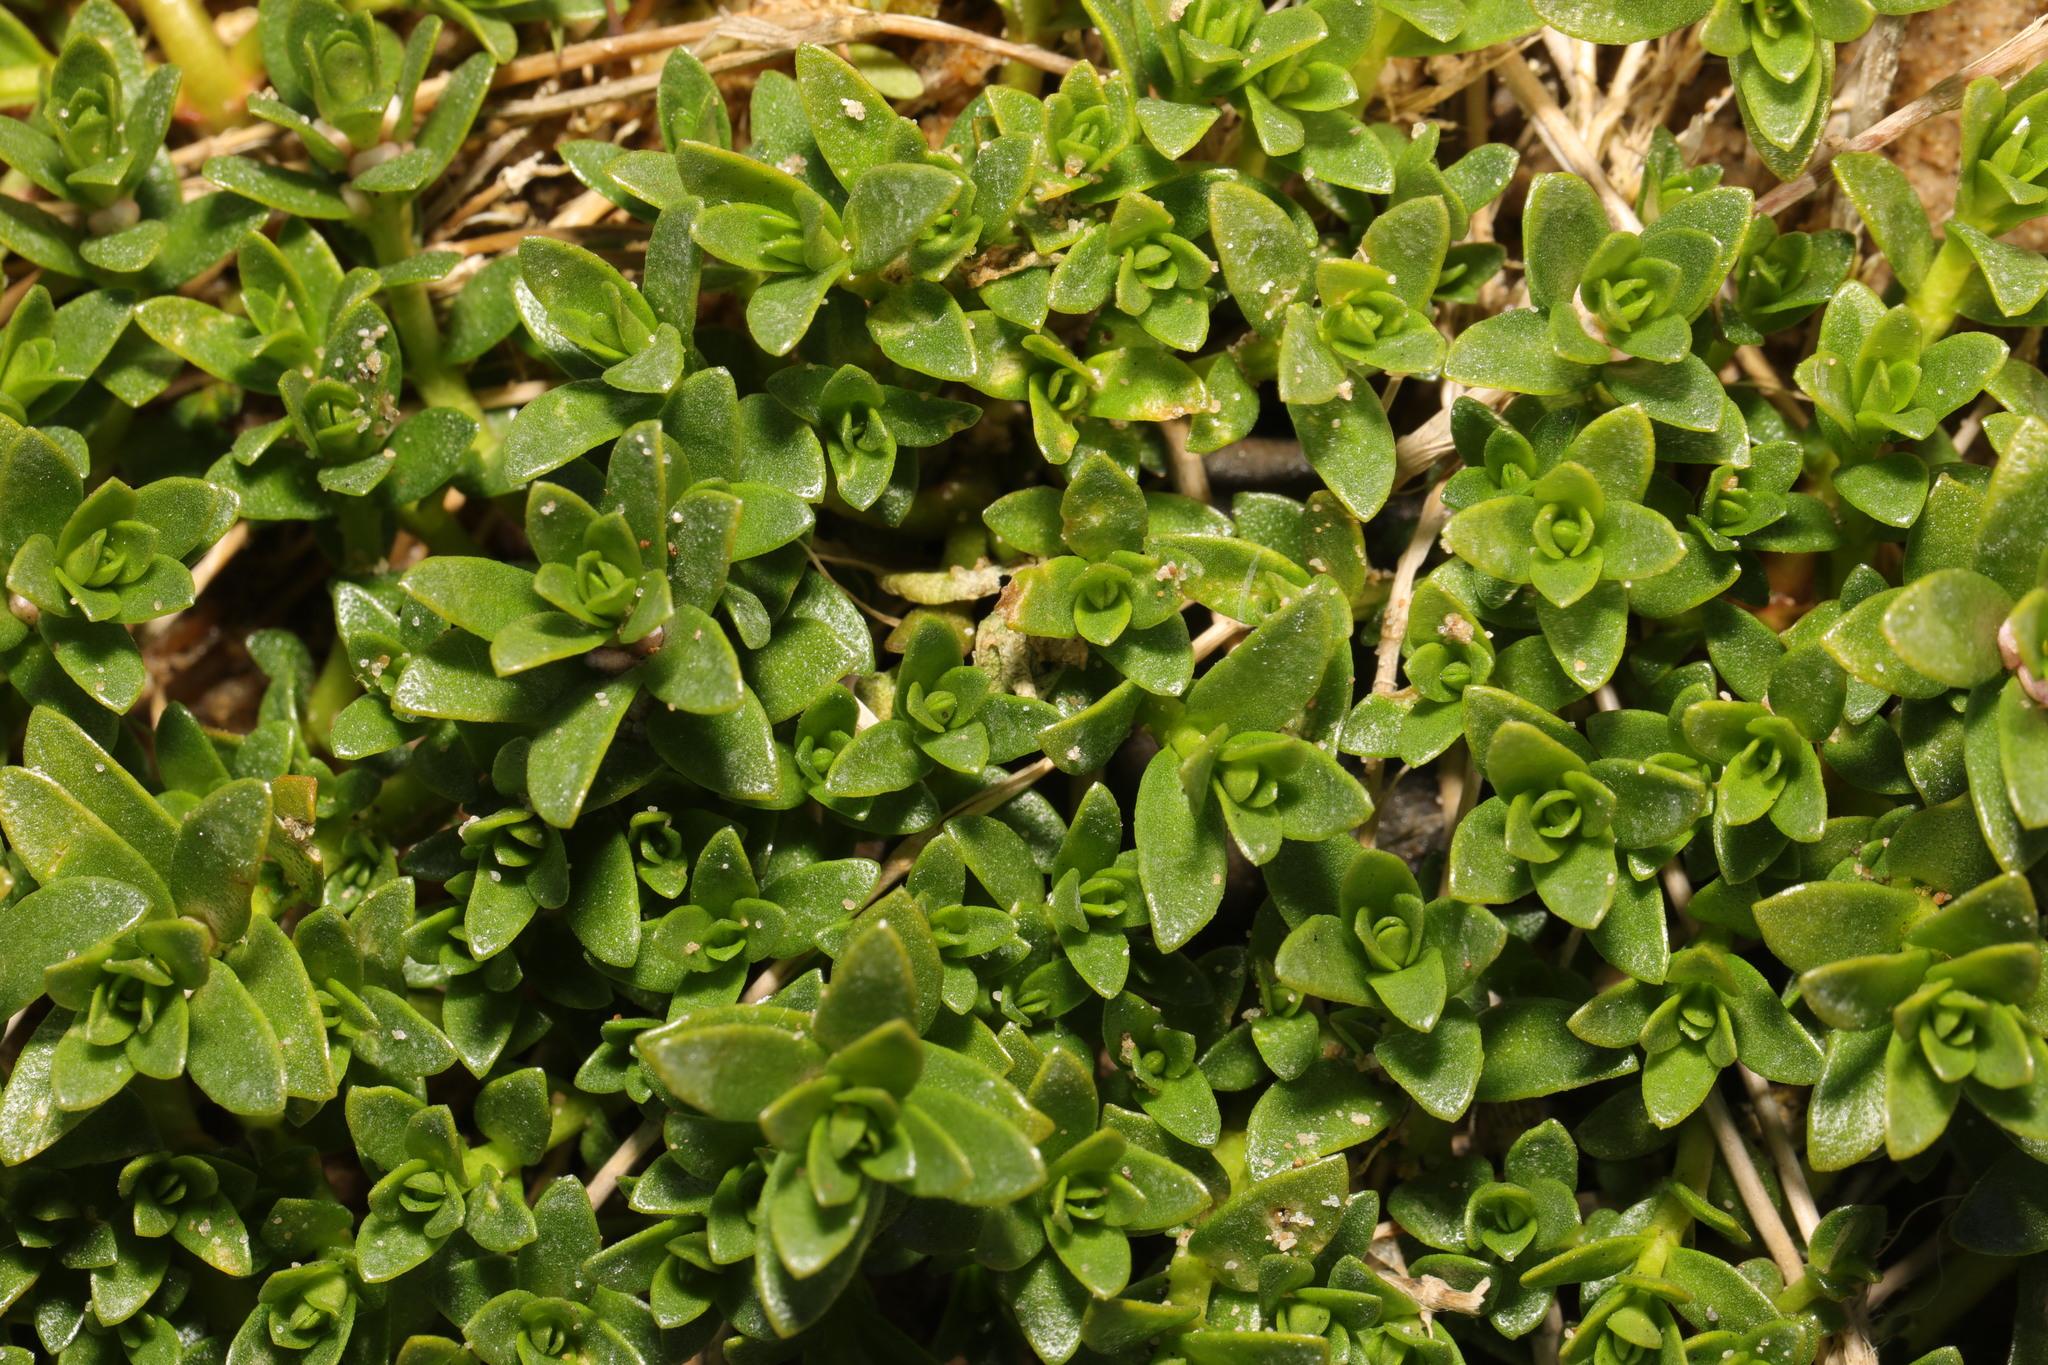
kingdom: Plantae
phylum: Tracheophyta
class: Magnoliopsida
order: Ericales
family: Primulaceae
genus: Lysimachia
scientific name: Lysimachia maritima
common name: Sea milkwort
